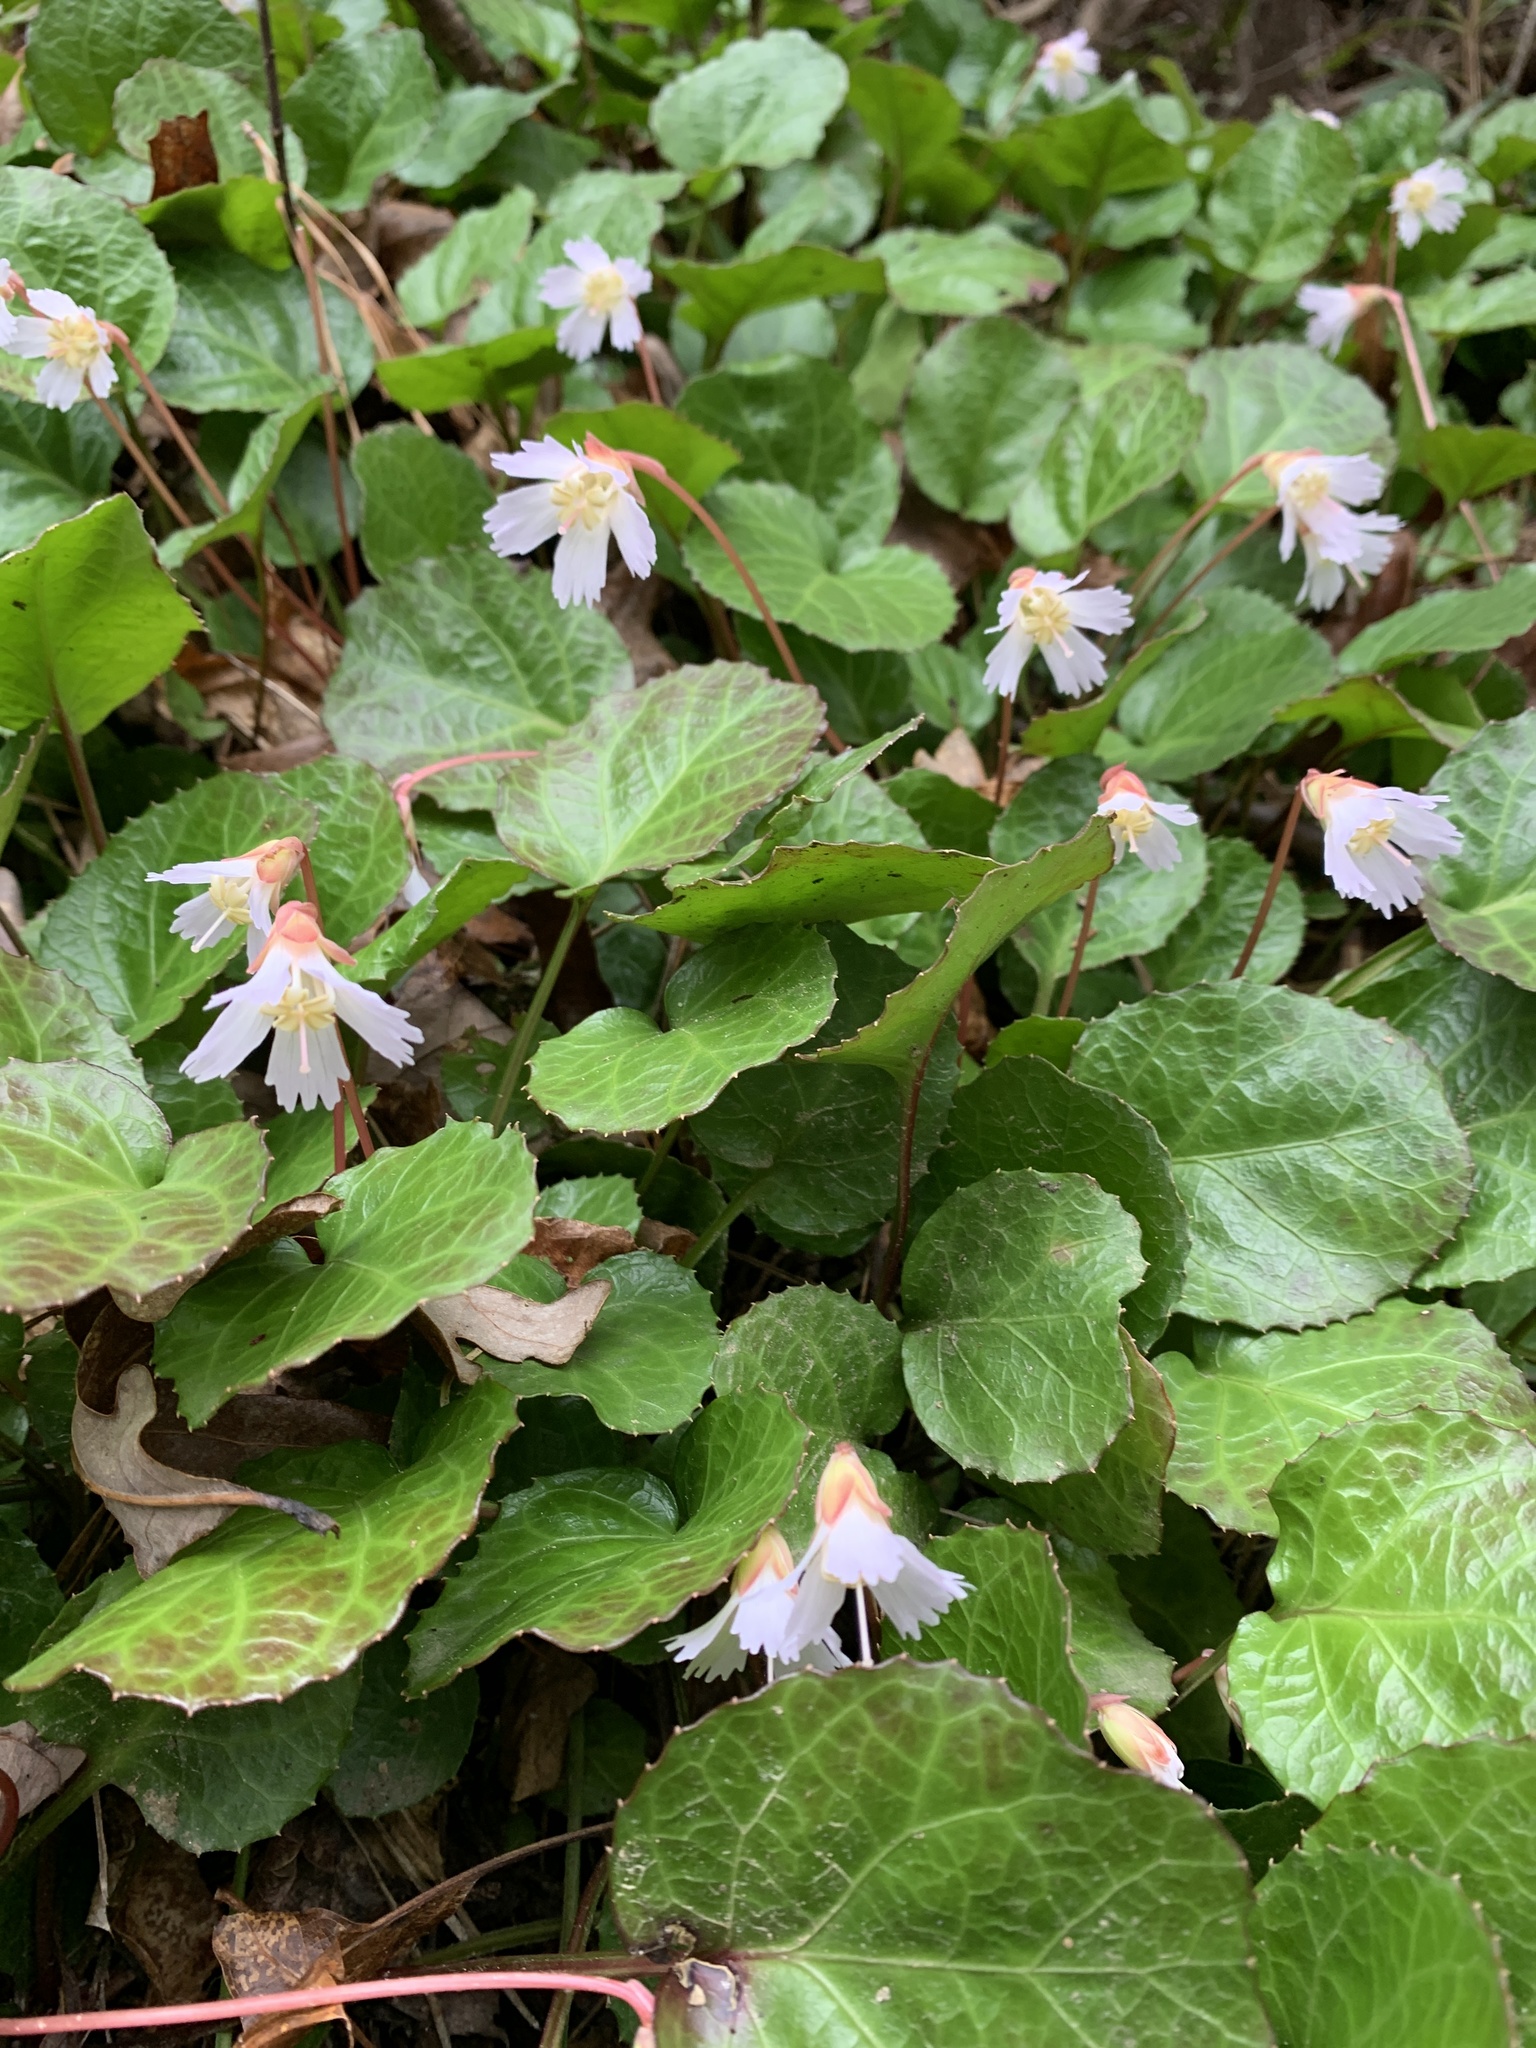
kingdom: Plantae
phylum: Tracheophyta
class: Magnoliopsida
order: Ericales
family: Diapensiaceae
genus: Shortia
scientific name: Shortia galacifolia
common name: Shortia
